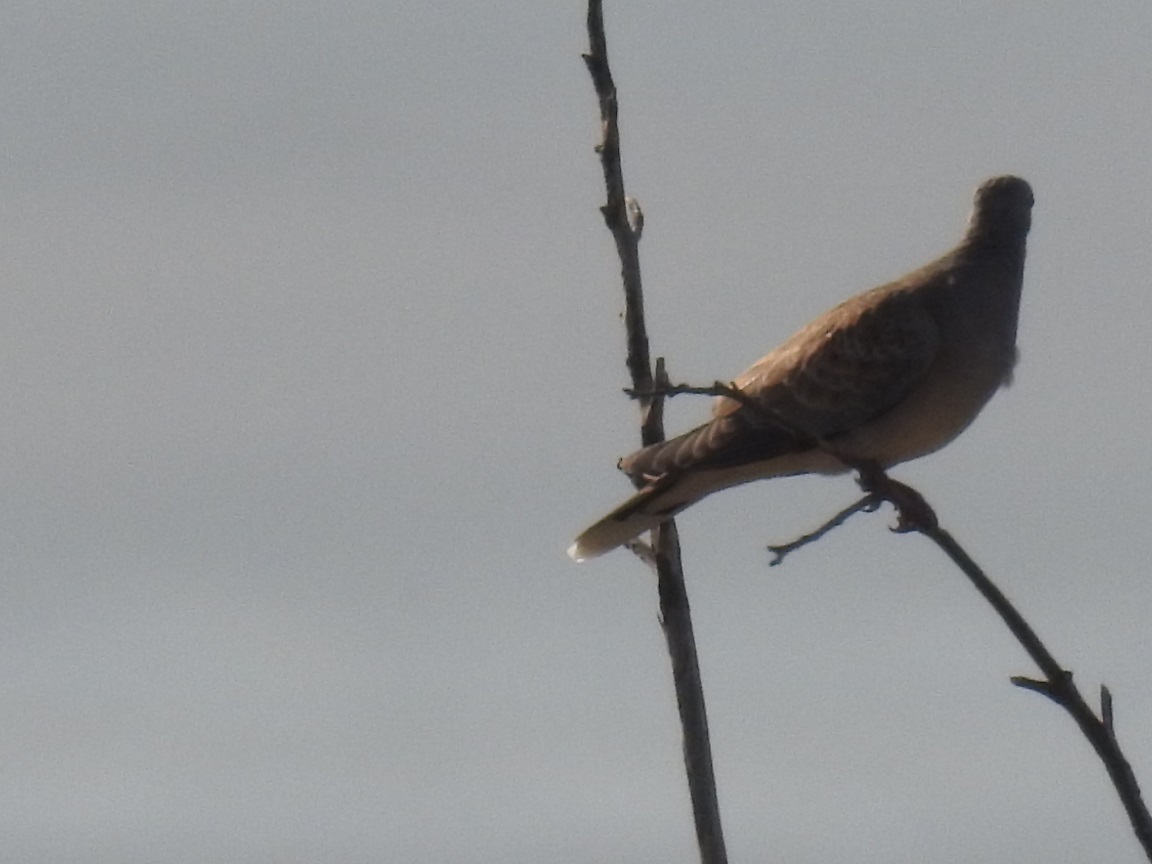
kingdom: Animalia
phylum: Chordata
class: Aves
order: Columbiformes
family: Columbidae
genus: Streptopelia
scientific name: Streptopelia turtur
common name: European turtle dove
